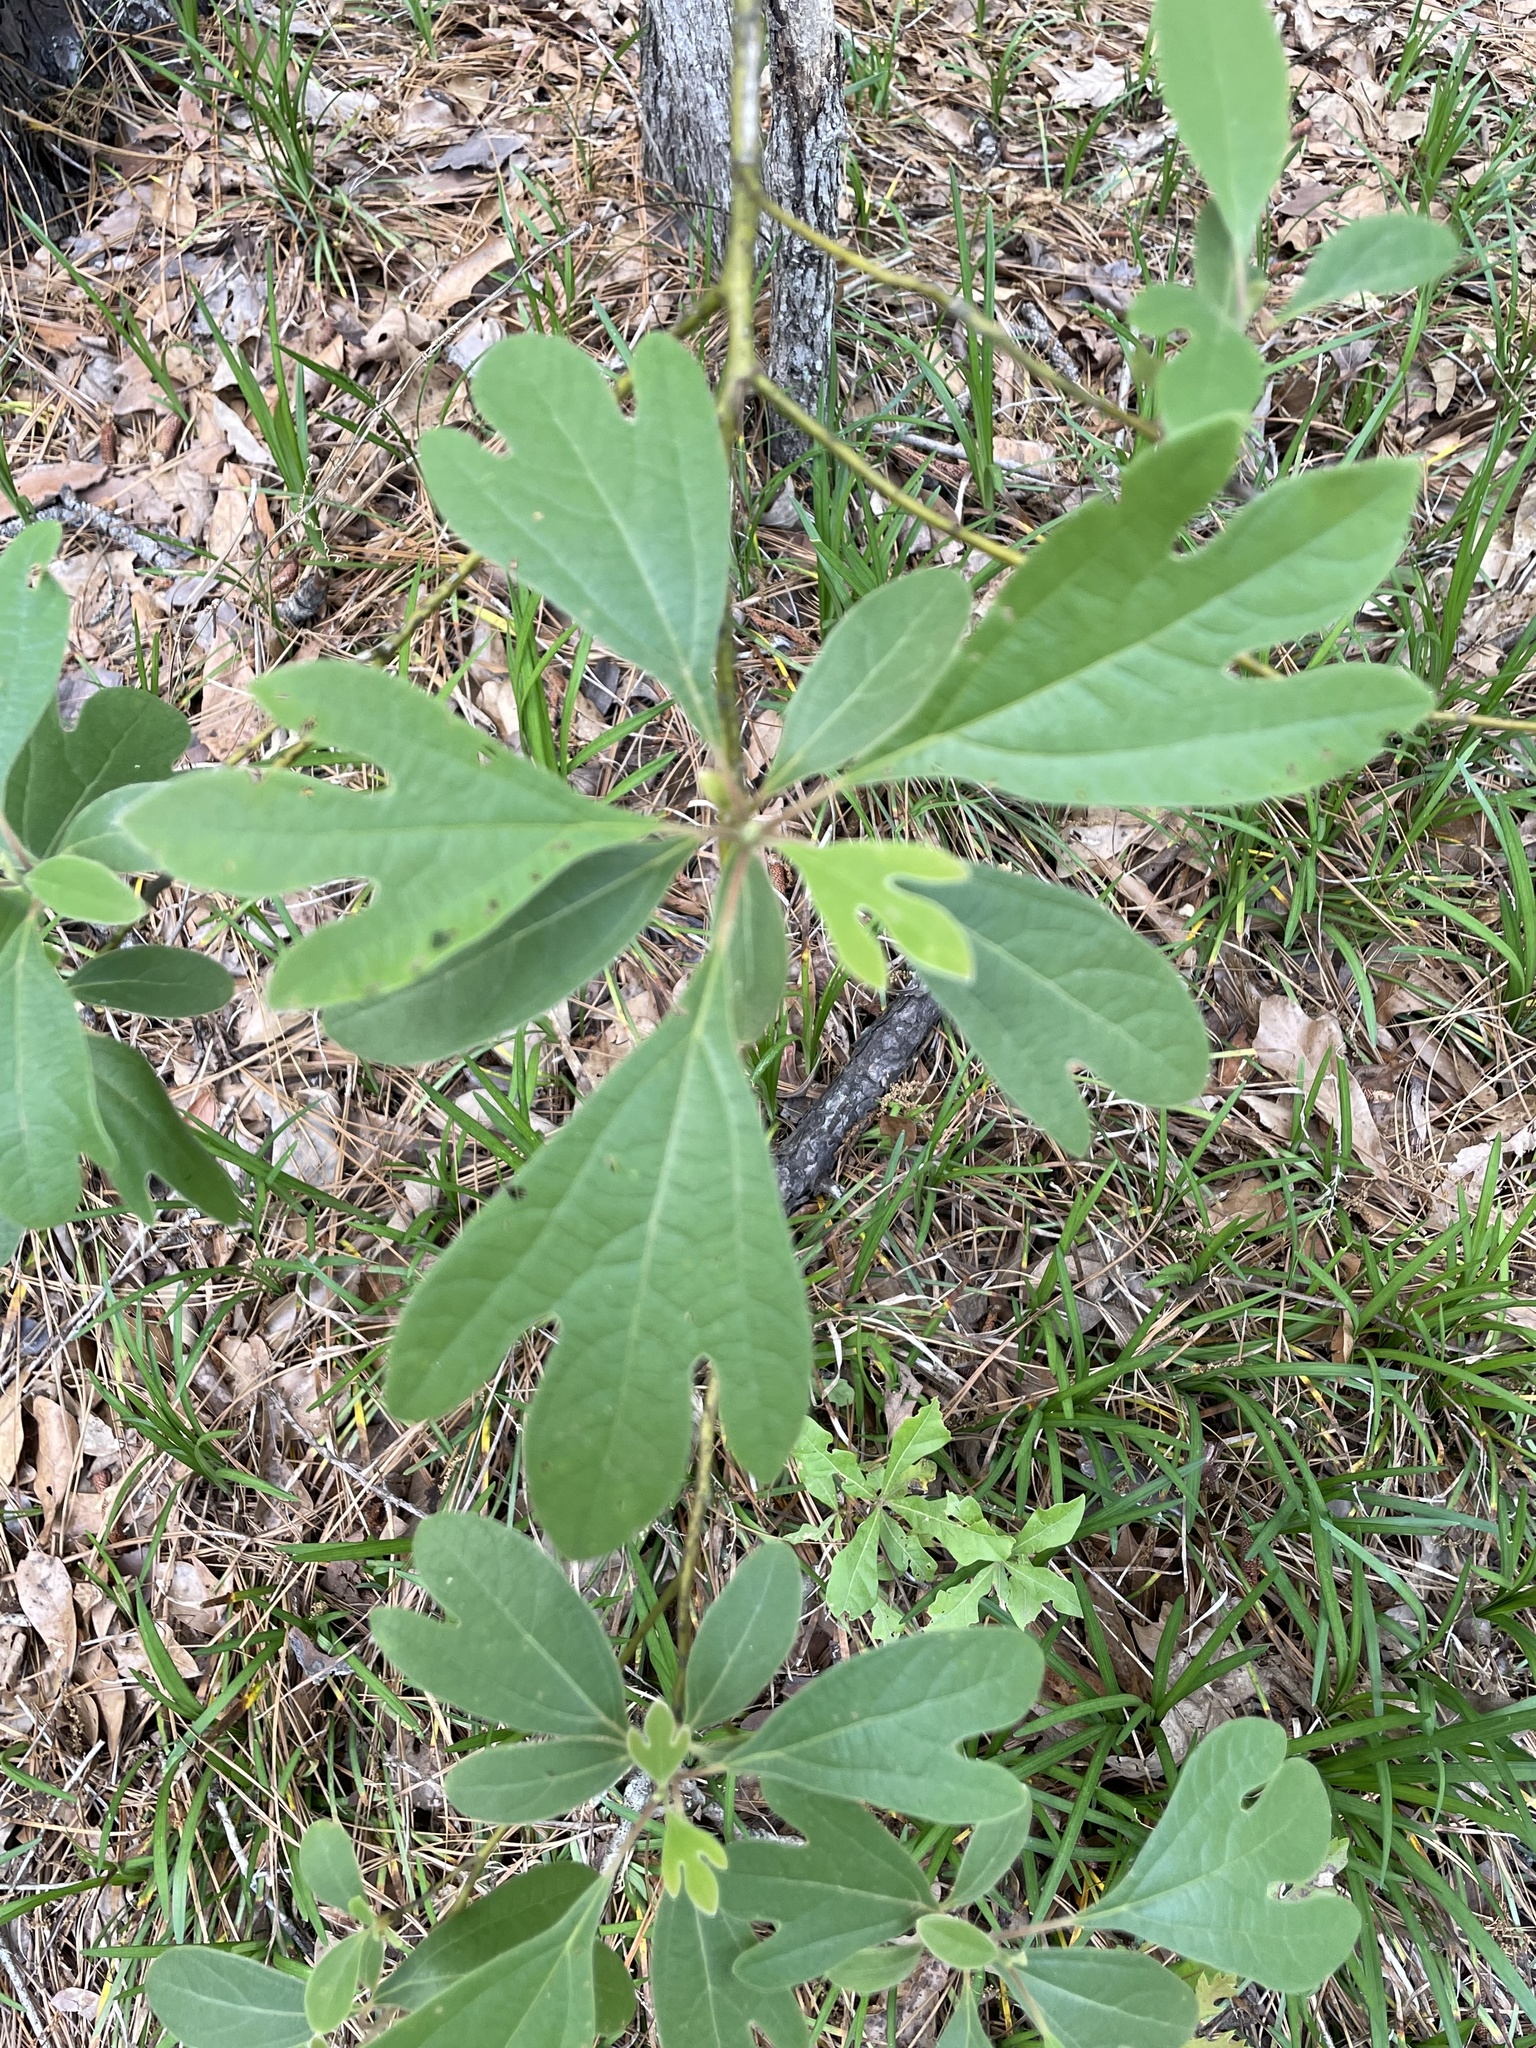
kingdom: Plantae
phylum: Tracheophyta
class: Magnoliopsida
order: Laurales
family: Lauraceae
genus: Sassafras
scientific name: Sassafras albidum
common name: Sassafras
